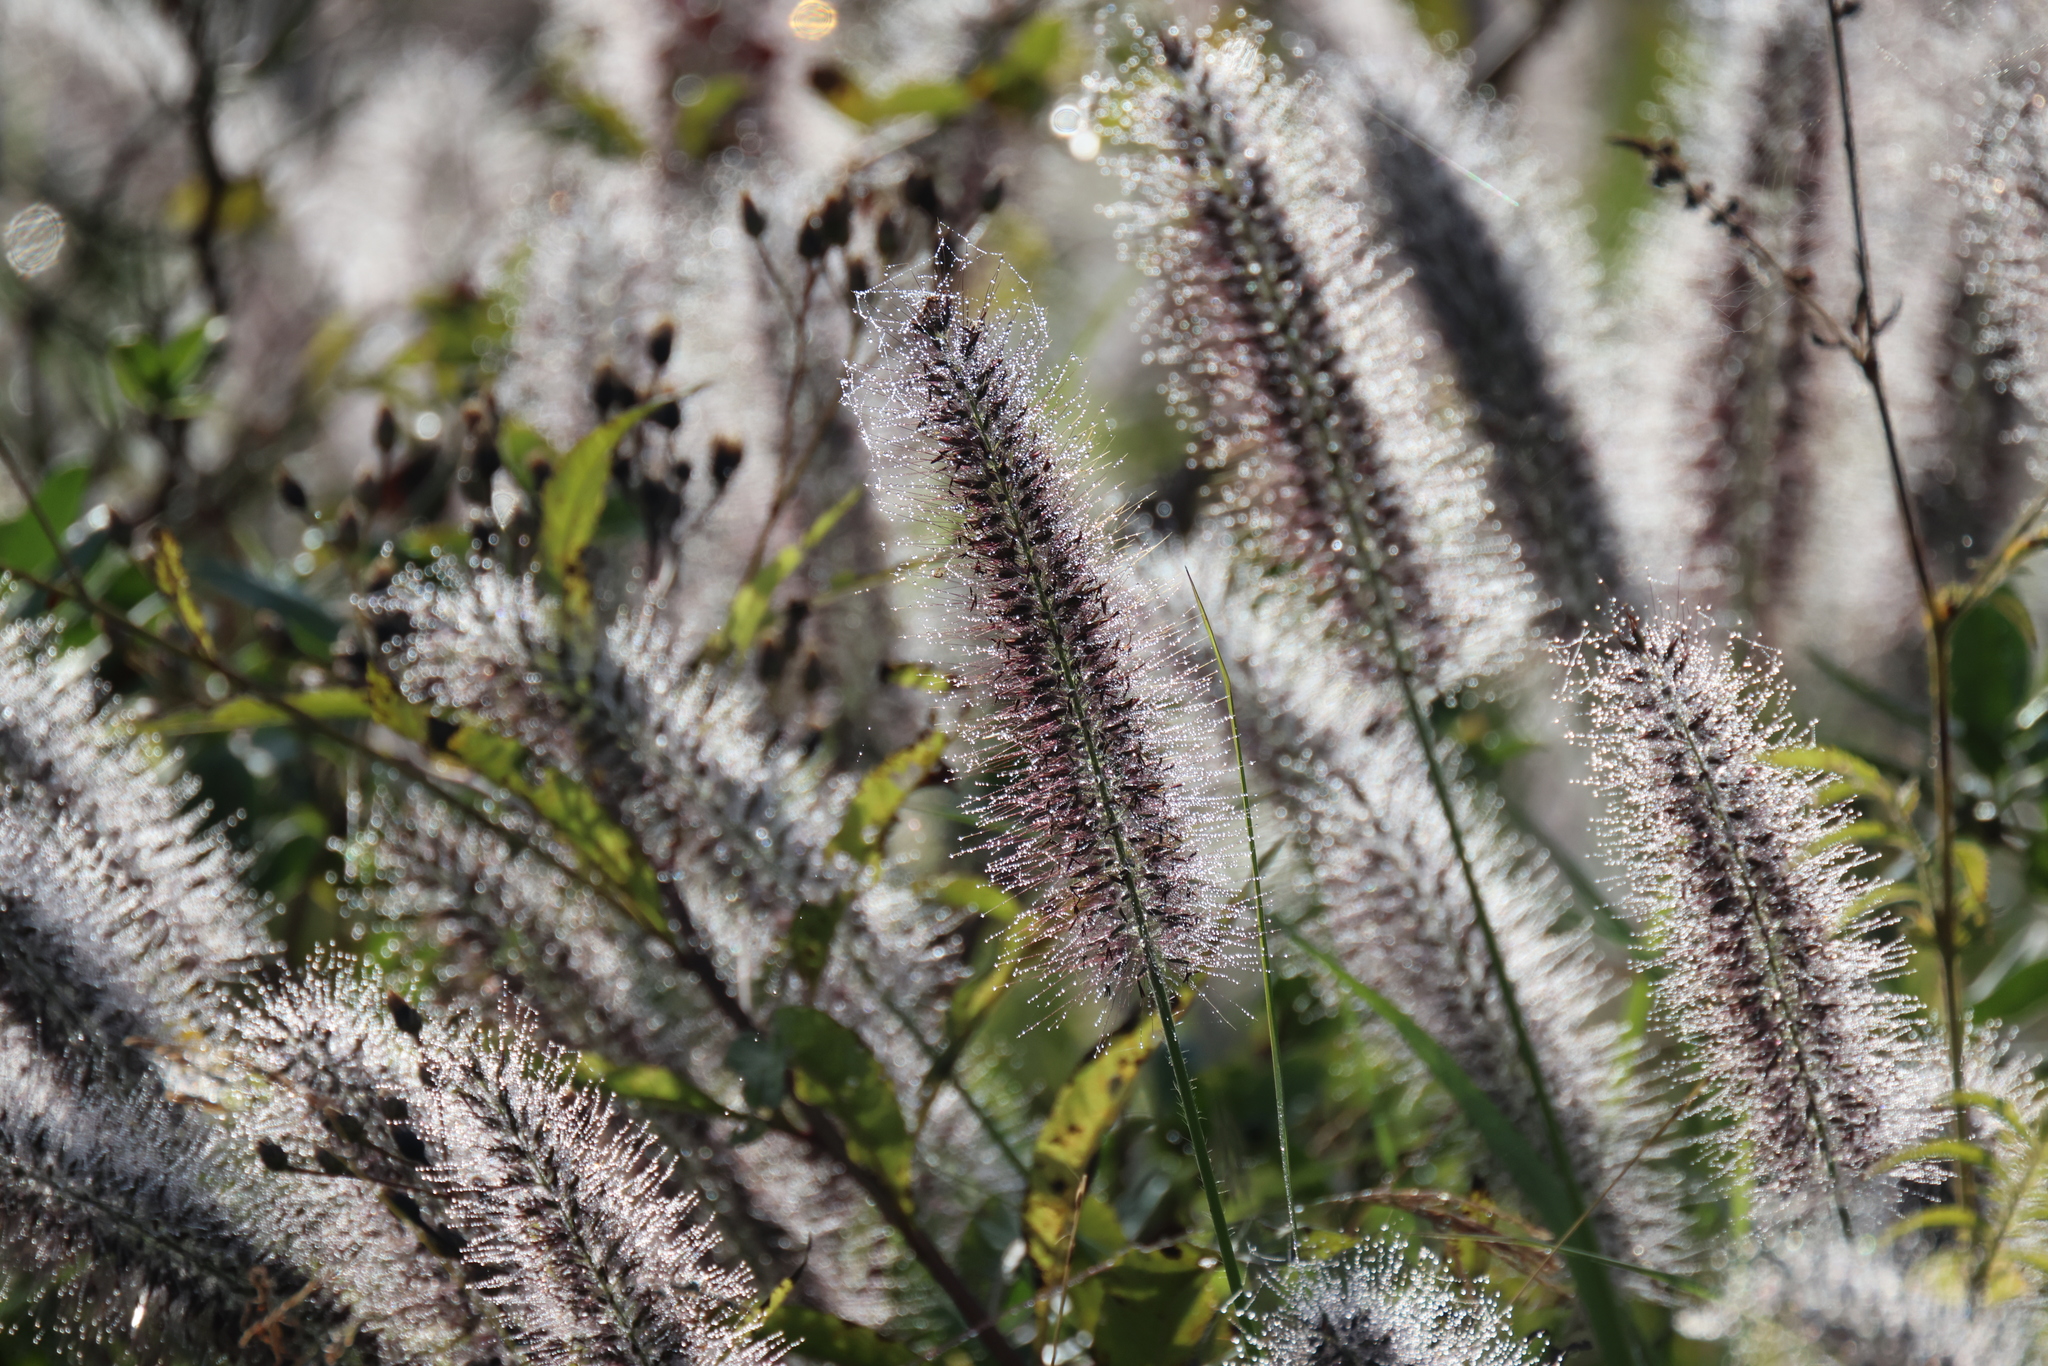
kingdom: Plantae
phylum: Tracheophyta
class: Liliopsida
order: Poales
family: Poaceae
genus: Cenchrus
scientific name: Cenchrus alopecuroides
